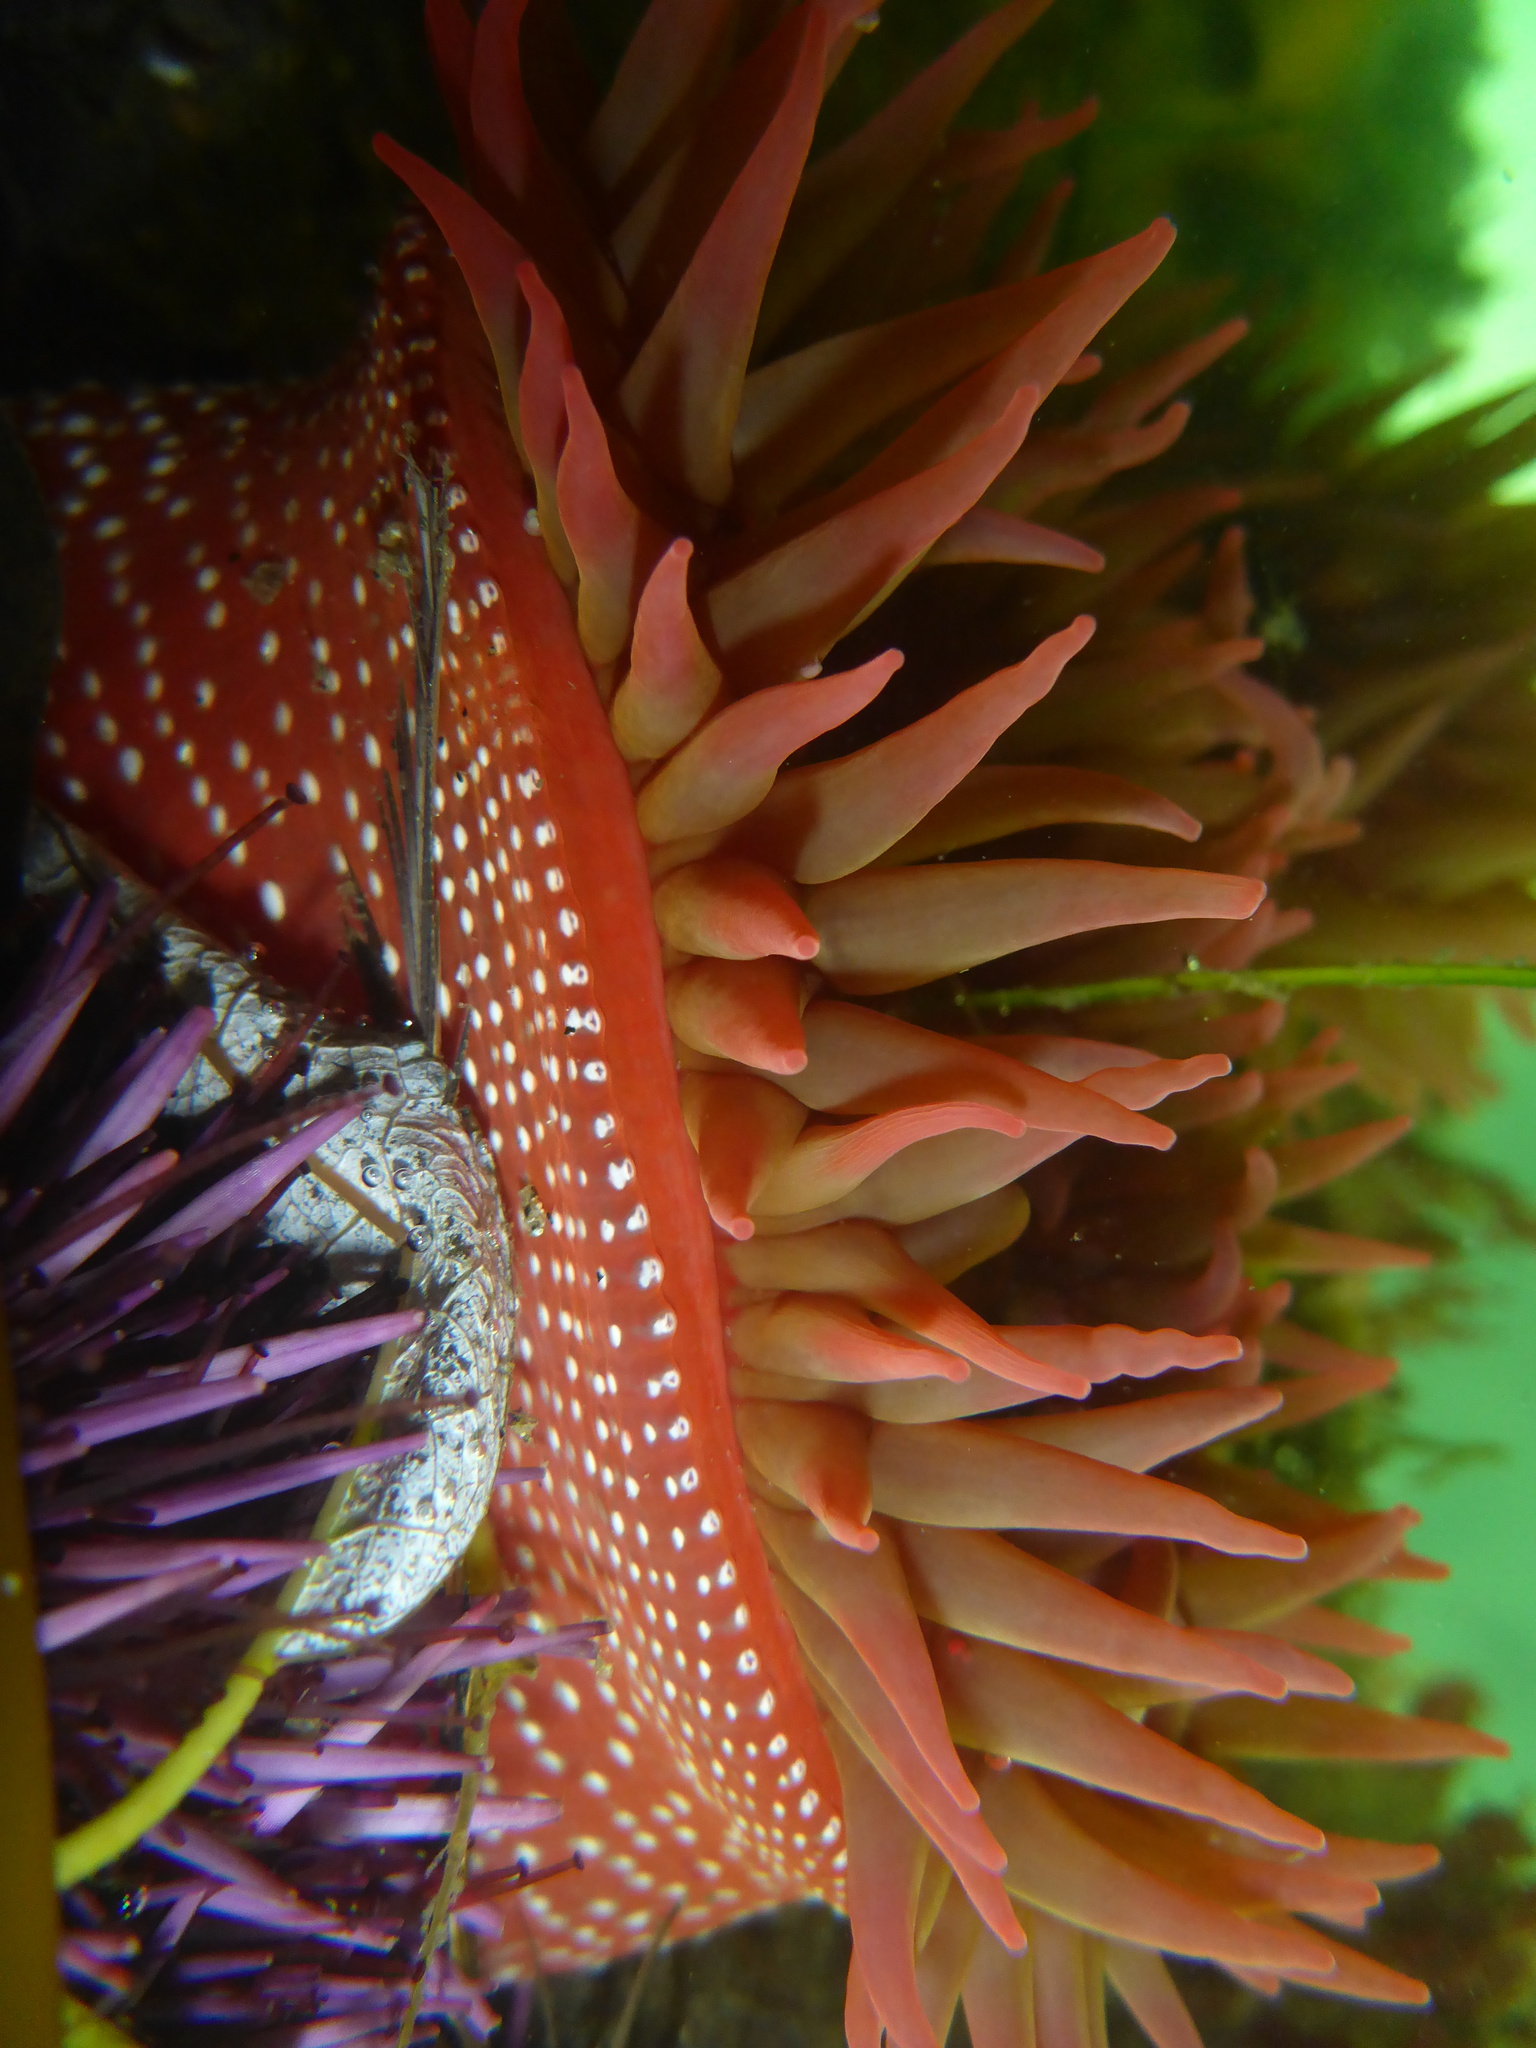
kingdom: Animalia
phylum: Cnidaria
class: Anthozoa
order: Actiniaria
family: Actiniidae
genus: Cribrinopsis
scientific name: Cribrinopsis albopunctata
